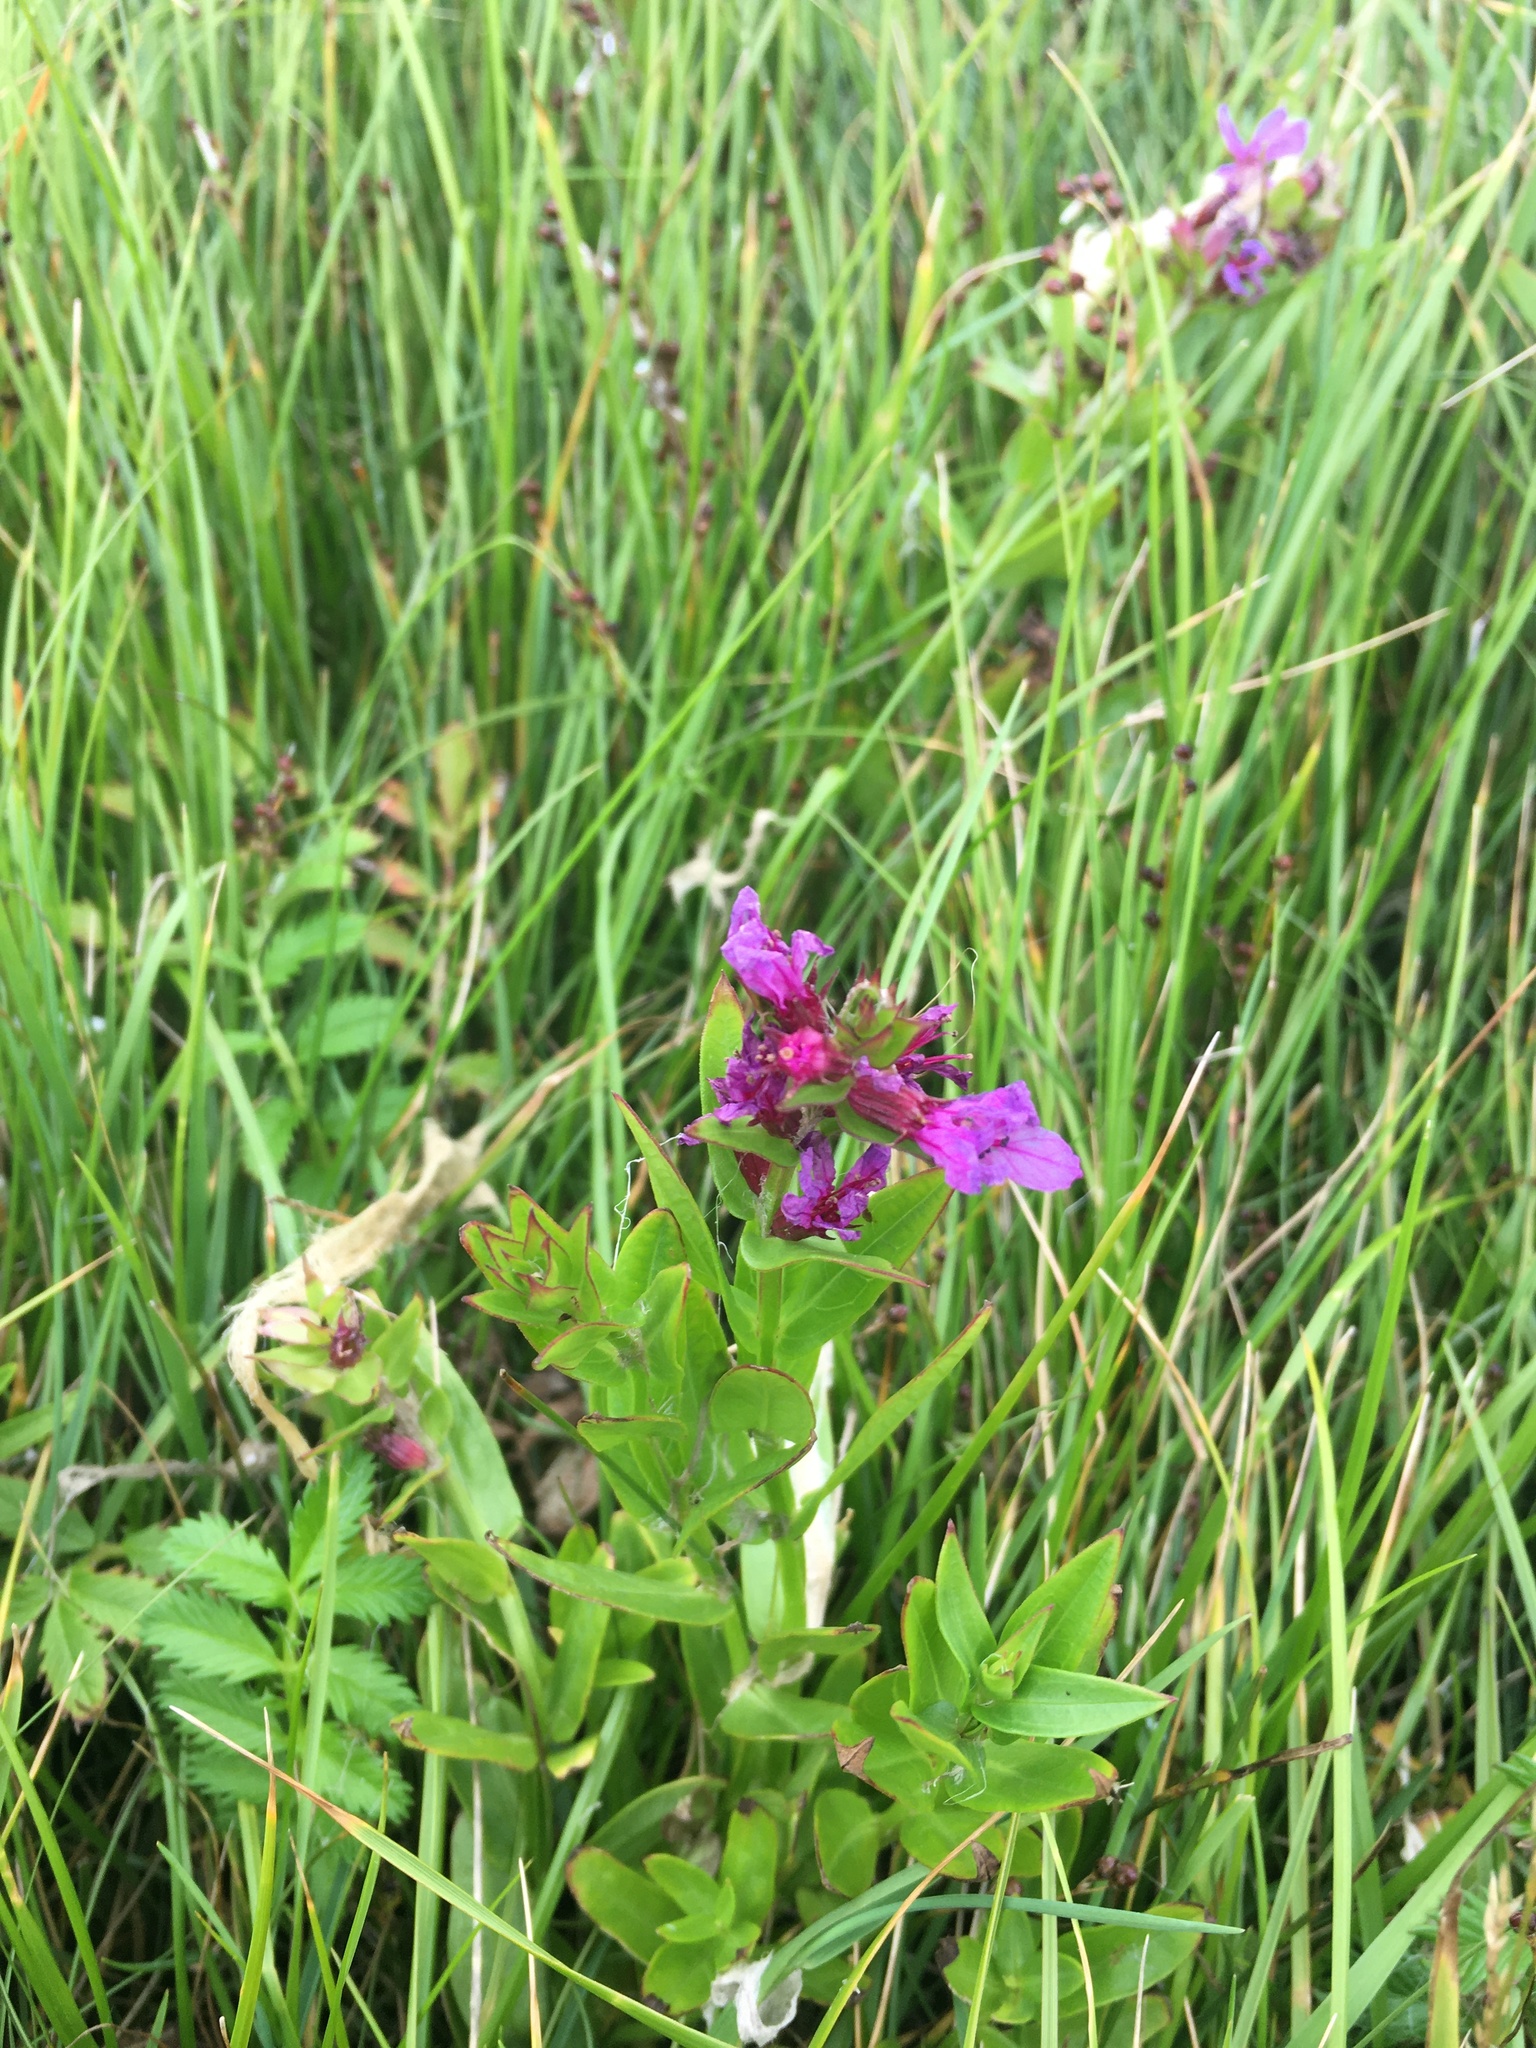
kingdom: Plantae
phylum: Tracheophyta
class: Magnoliopsida
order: Myrtales
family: Lythraceae
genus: Lythrum
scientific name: Lythrum salicaria
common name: Purple loosestrife
